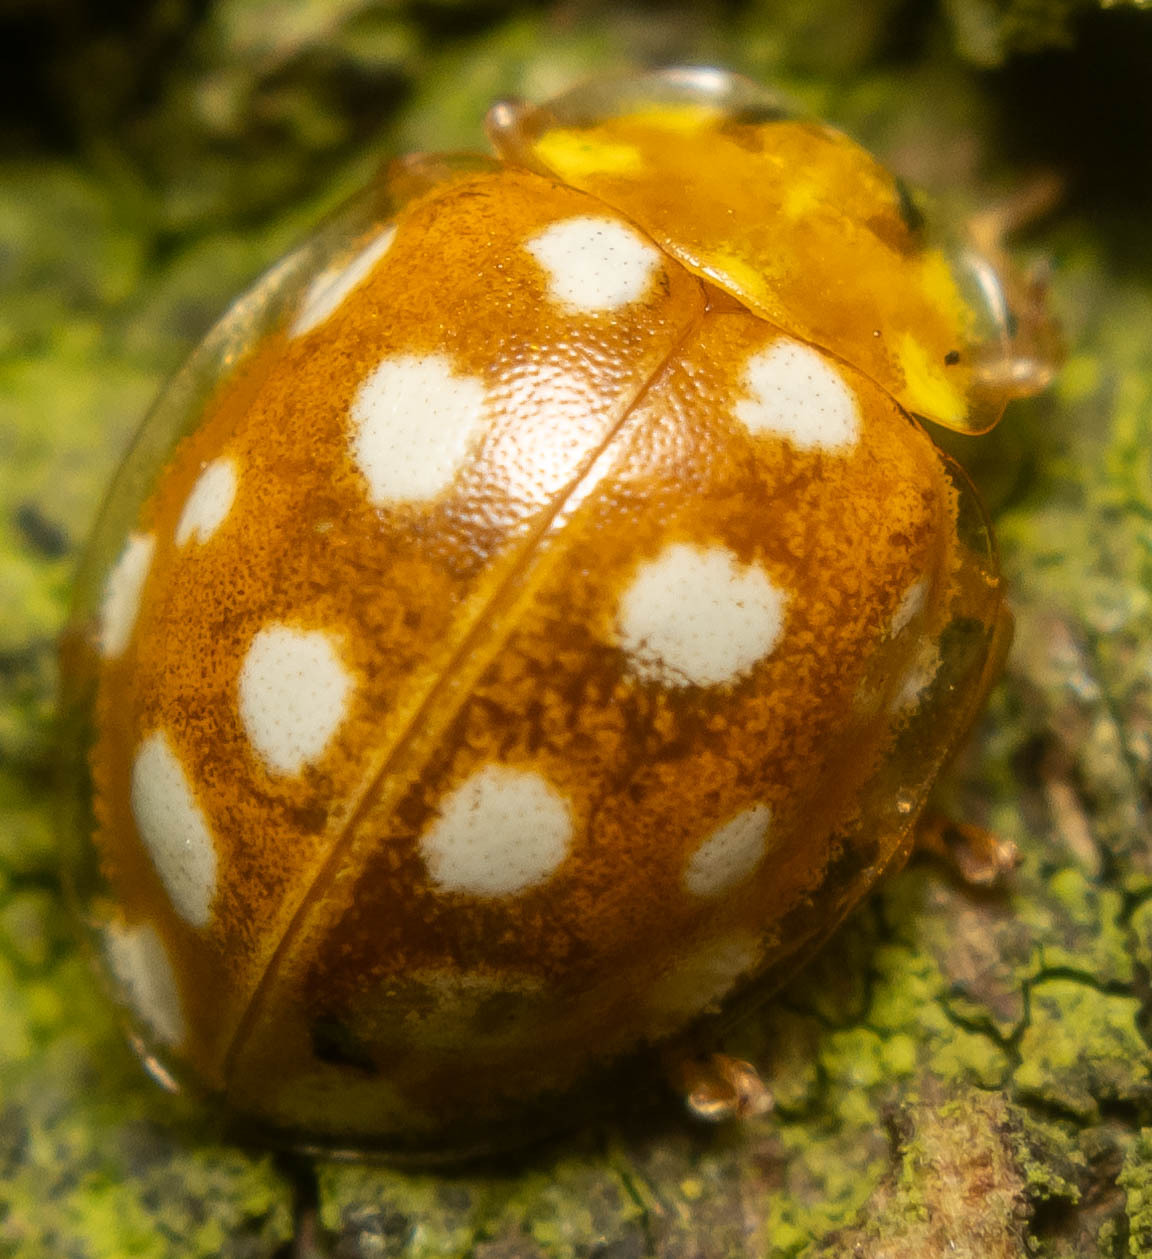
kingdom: Animalia
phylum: Arthropoda
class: Insecta
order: Coleoptera
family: Coccinellidae
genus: Halyzia
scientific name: Halyzia sedecimguttata
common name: Orange ladybird
